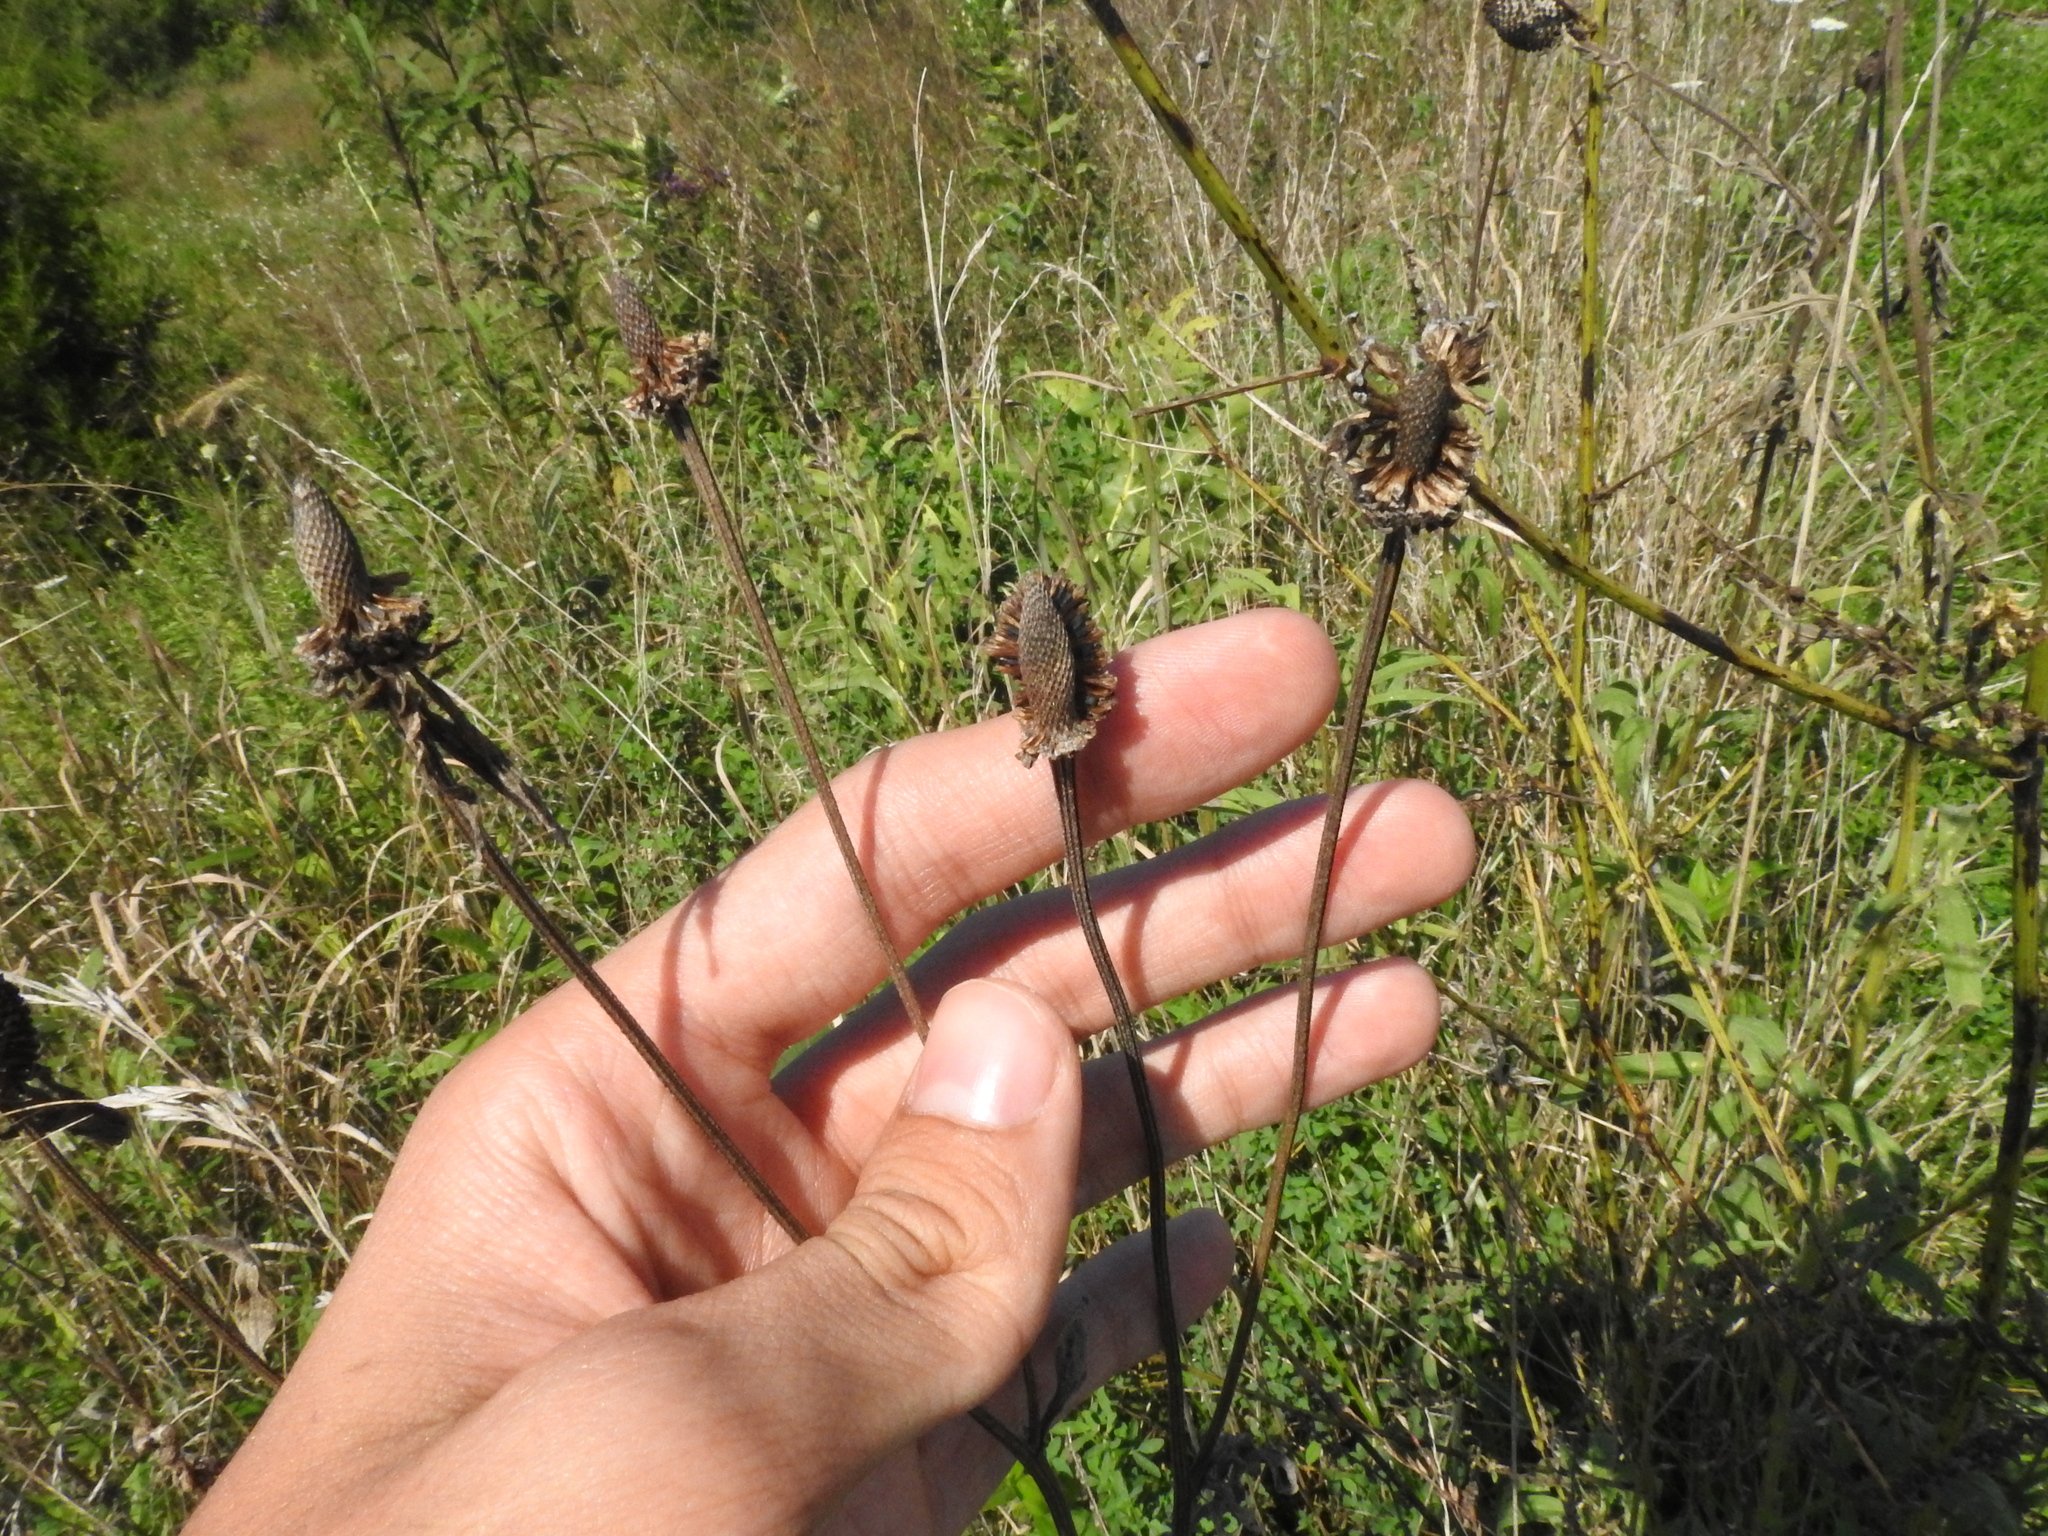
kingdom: Plantae
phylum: Tracheophyta
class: Magnoliopsida
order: Asterales
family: Asteraceae
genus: Ratibida
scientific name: Ratibida pinnata
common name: Drooping prairie-coneflower
